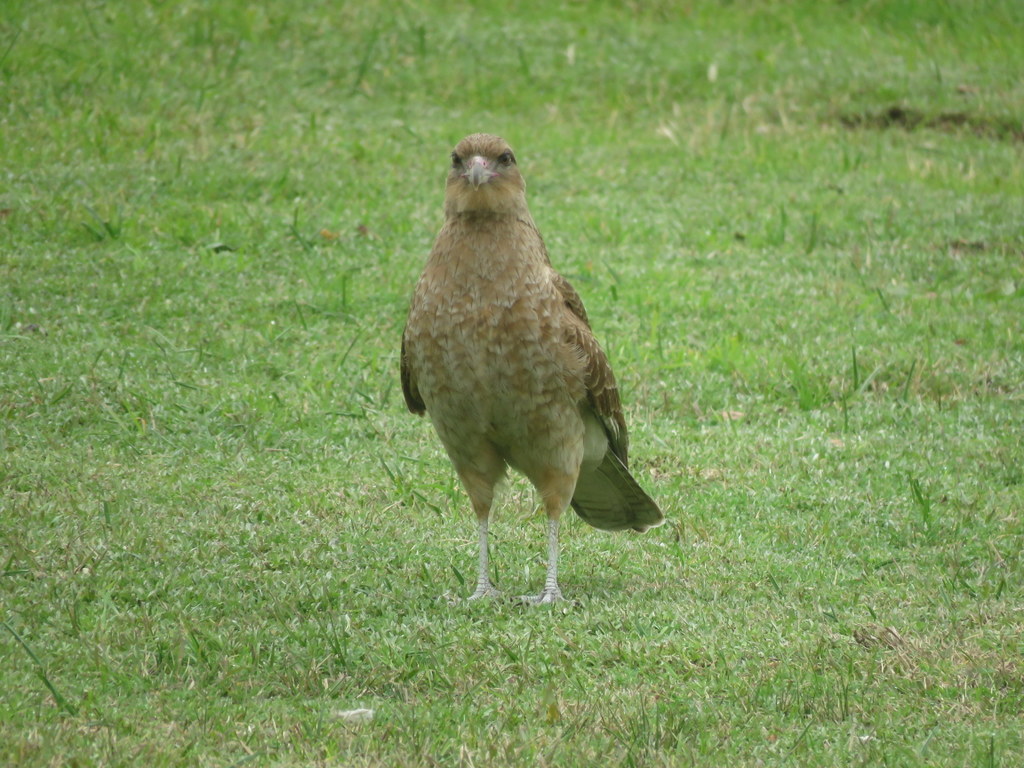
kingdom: Animalia
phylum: Chordata
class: Aves
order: Falconiformes
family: Falconidae
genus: Daptrius
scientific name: Daptrius
